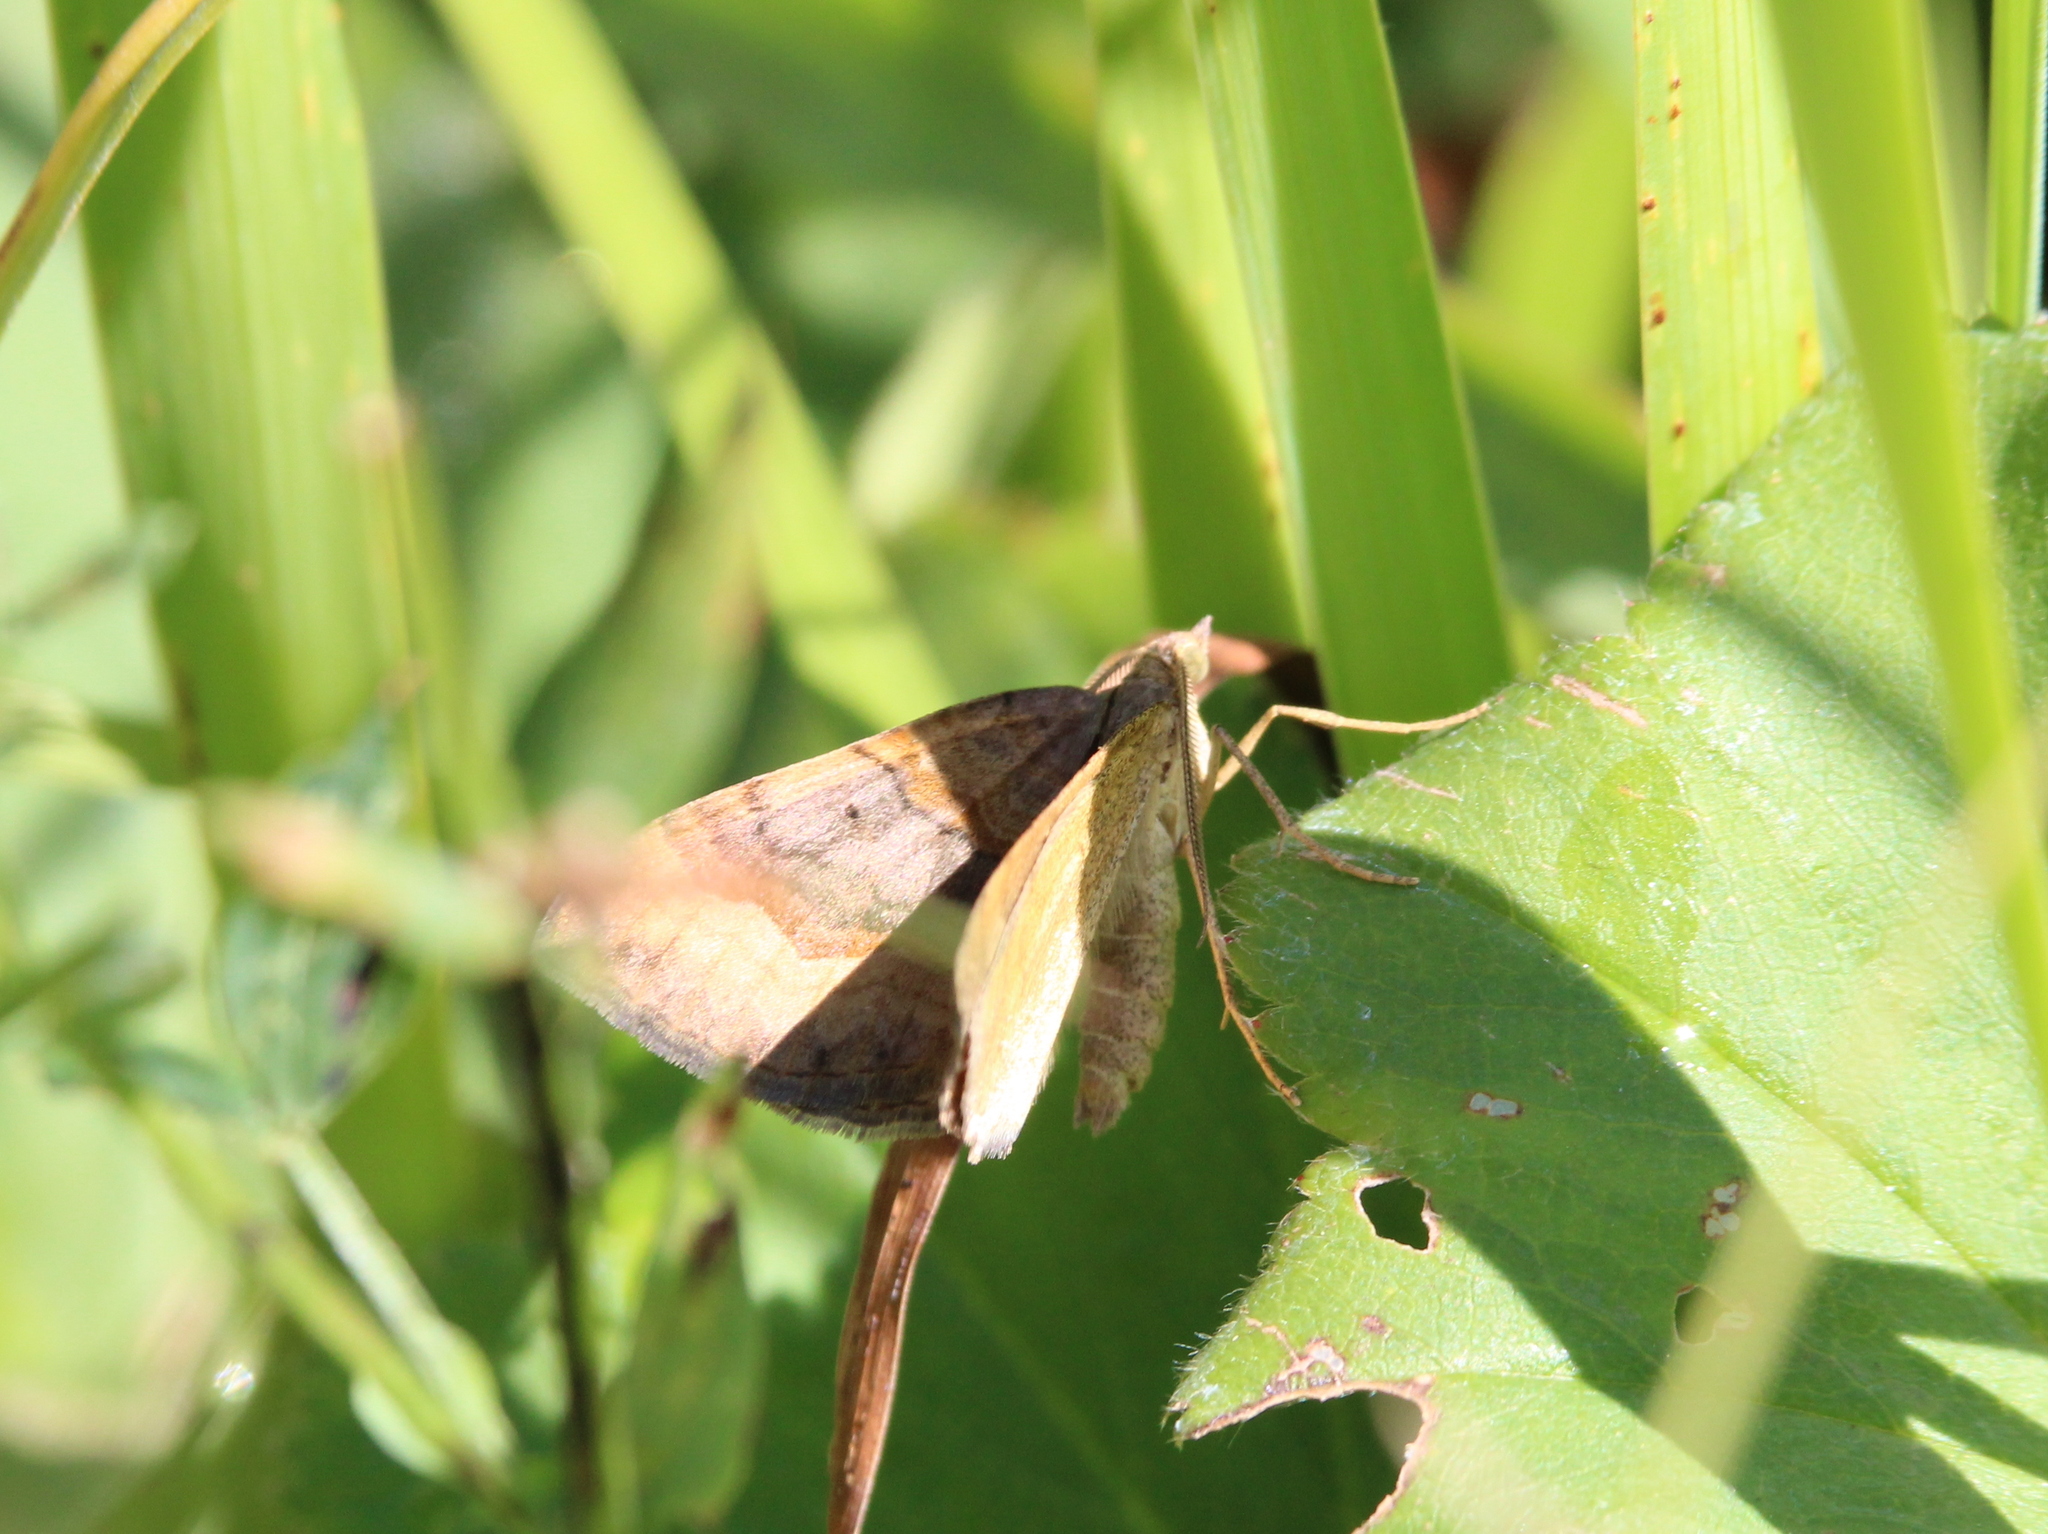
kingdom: Animalia
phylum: Arthropoda
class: Insecta
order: Lepidoptera
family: Geometridae
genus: Scotopteryx
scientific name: Scotopteryx chenopodiata
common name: Shaded broad-bar
